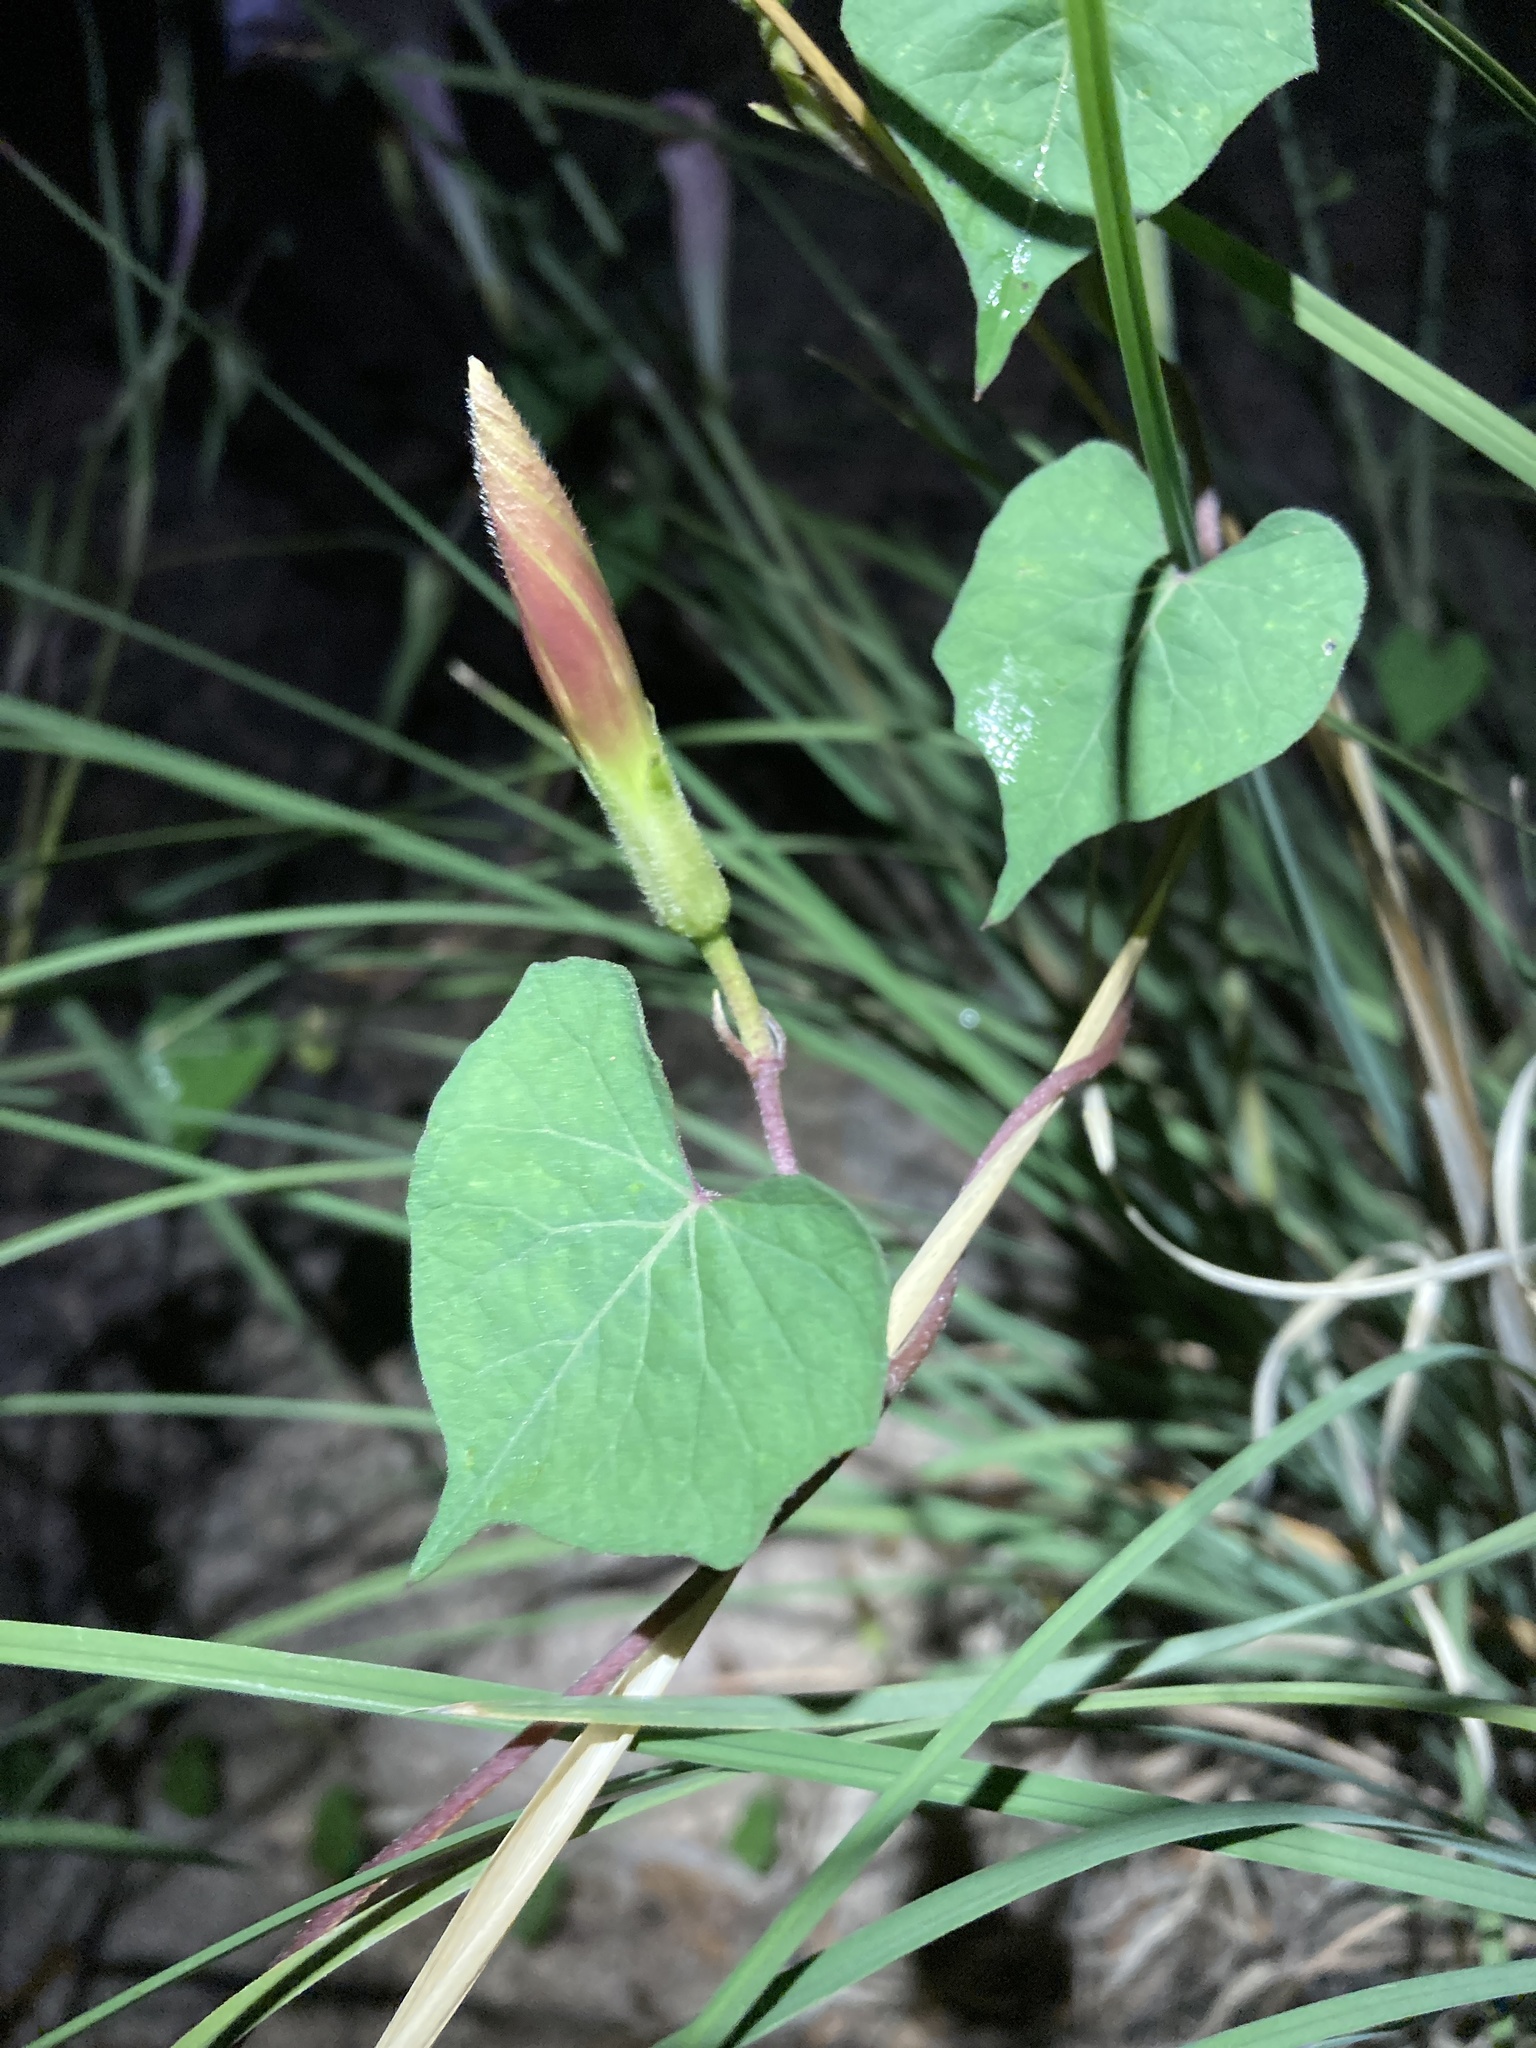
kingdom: Plantae
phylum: Tracheophyta
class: Magnoliopsida
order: Solanales
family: Convolvulaceae
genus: Ipomoea
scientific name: Ipomoea gilana
